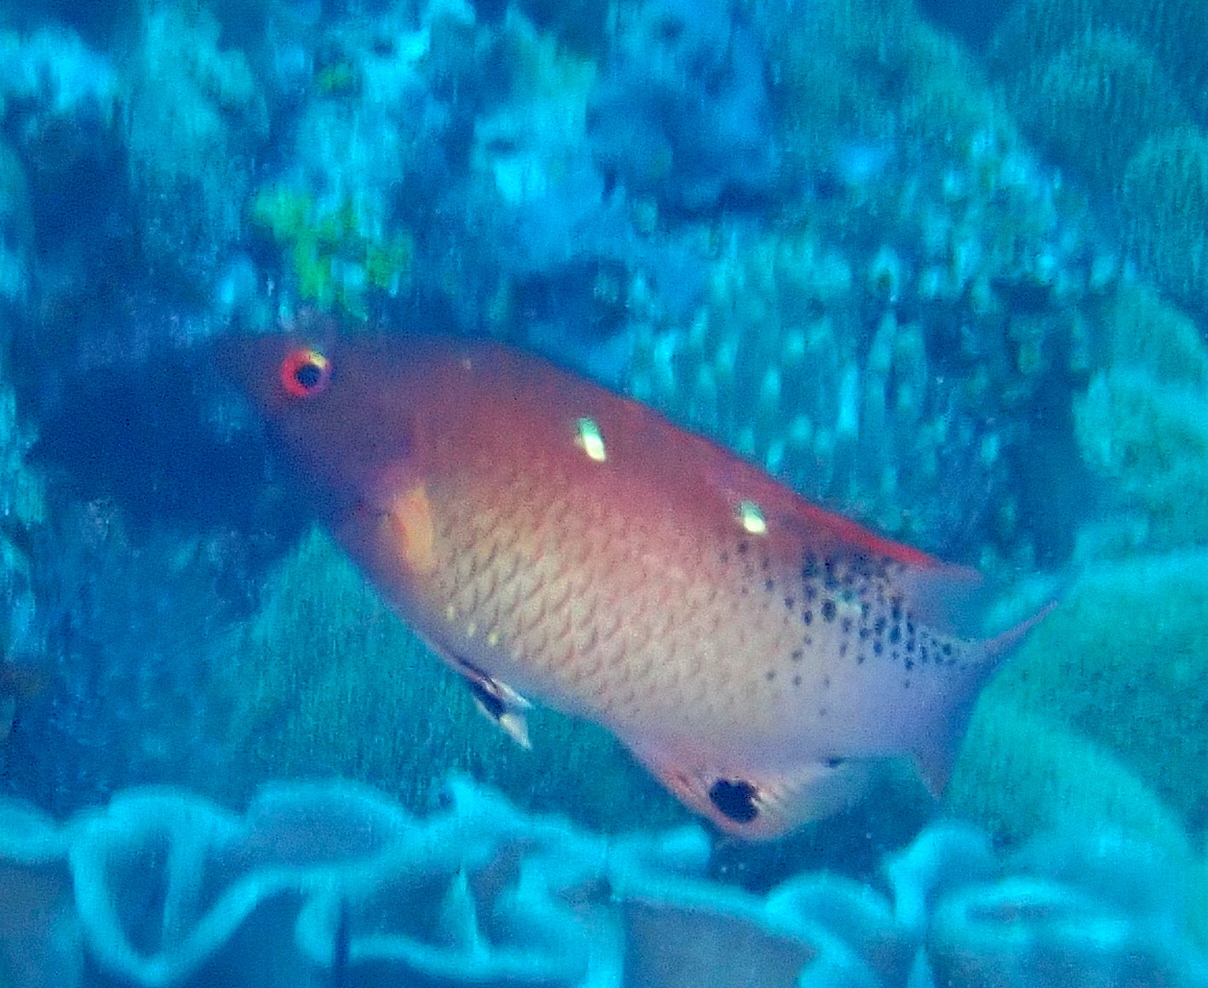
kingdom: Animalia
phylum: Chordata
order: Perciformes
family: Labridae
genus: Bodianus
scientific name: Bodianus dictynna
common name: Diana's hogfish
